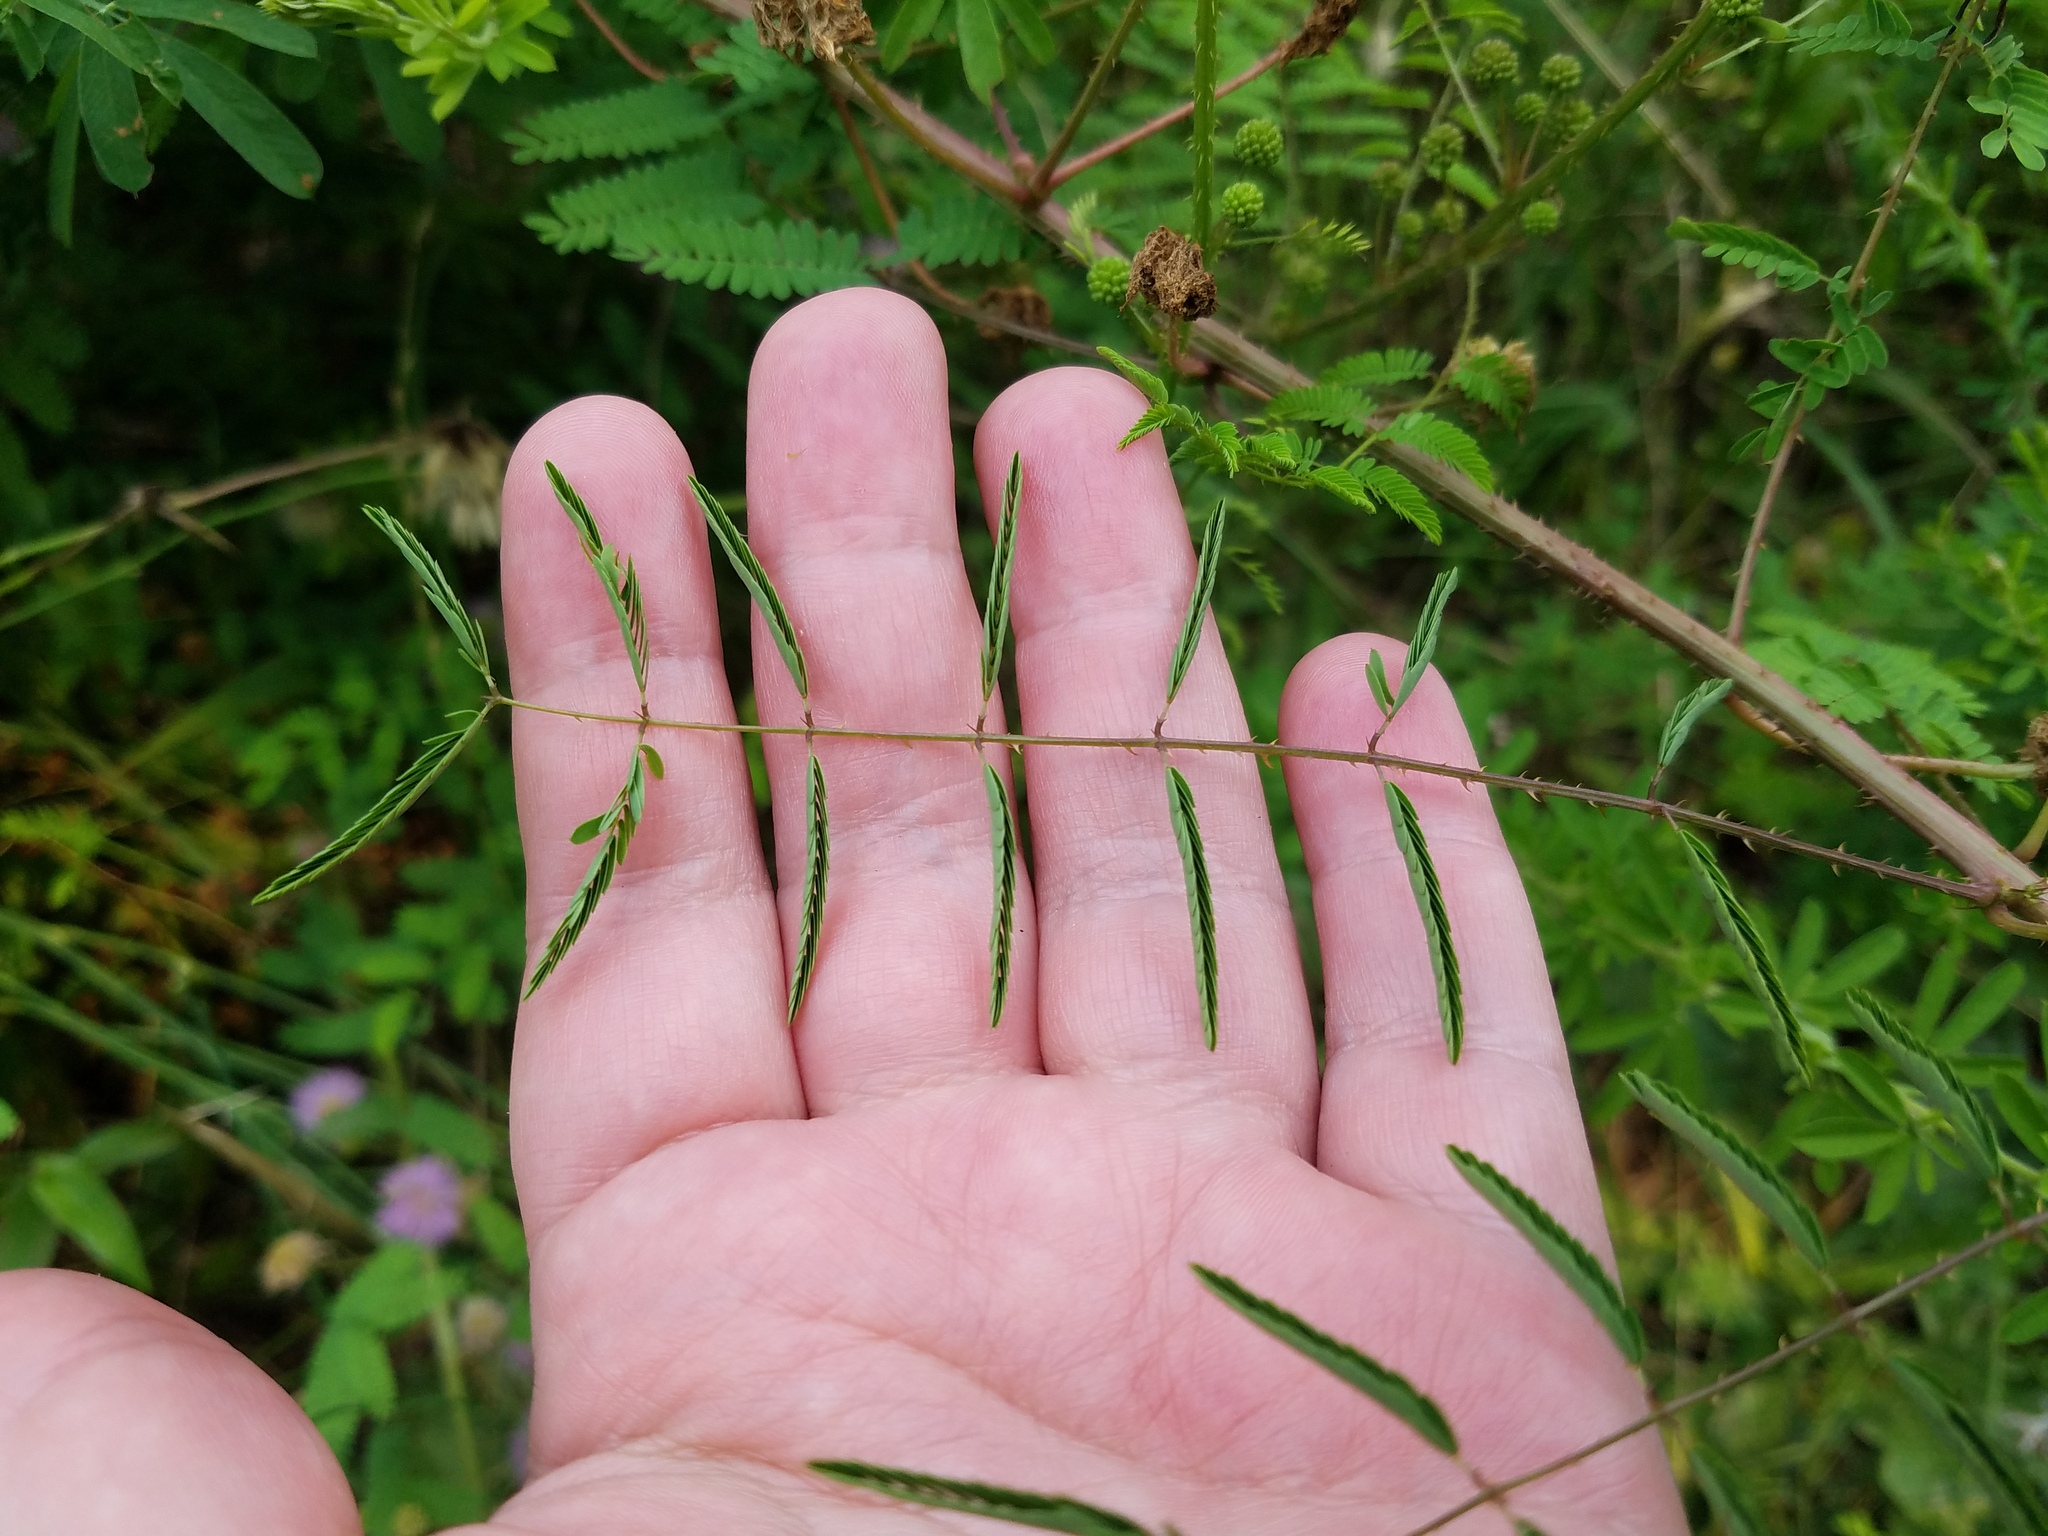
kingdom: Plantae
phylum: Tracheophyta
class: Magnoliopsida
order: Fabales
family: Fabaceae
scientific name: Fabaceae
